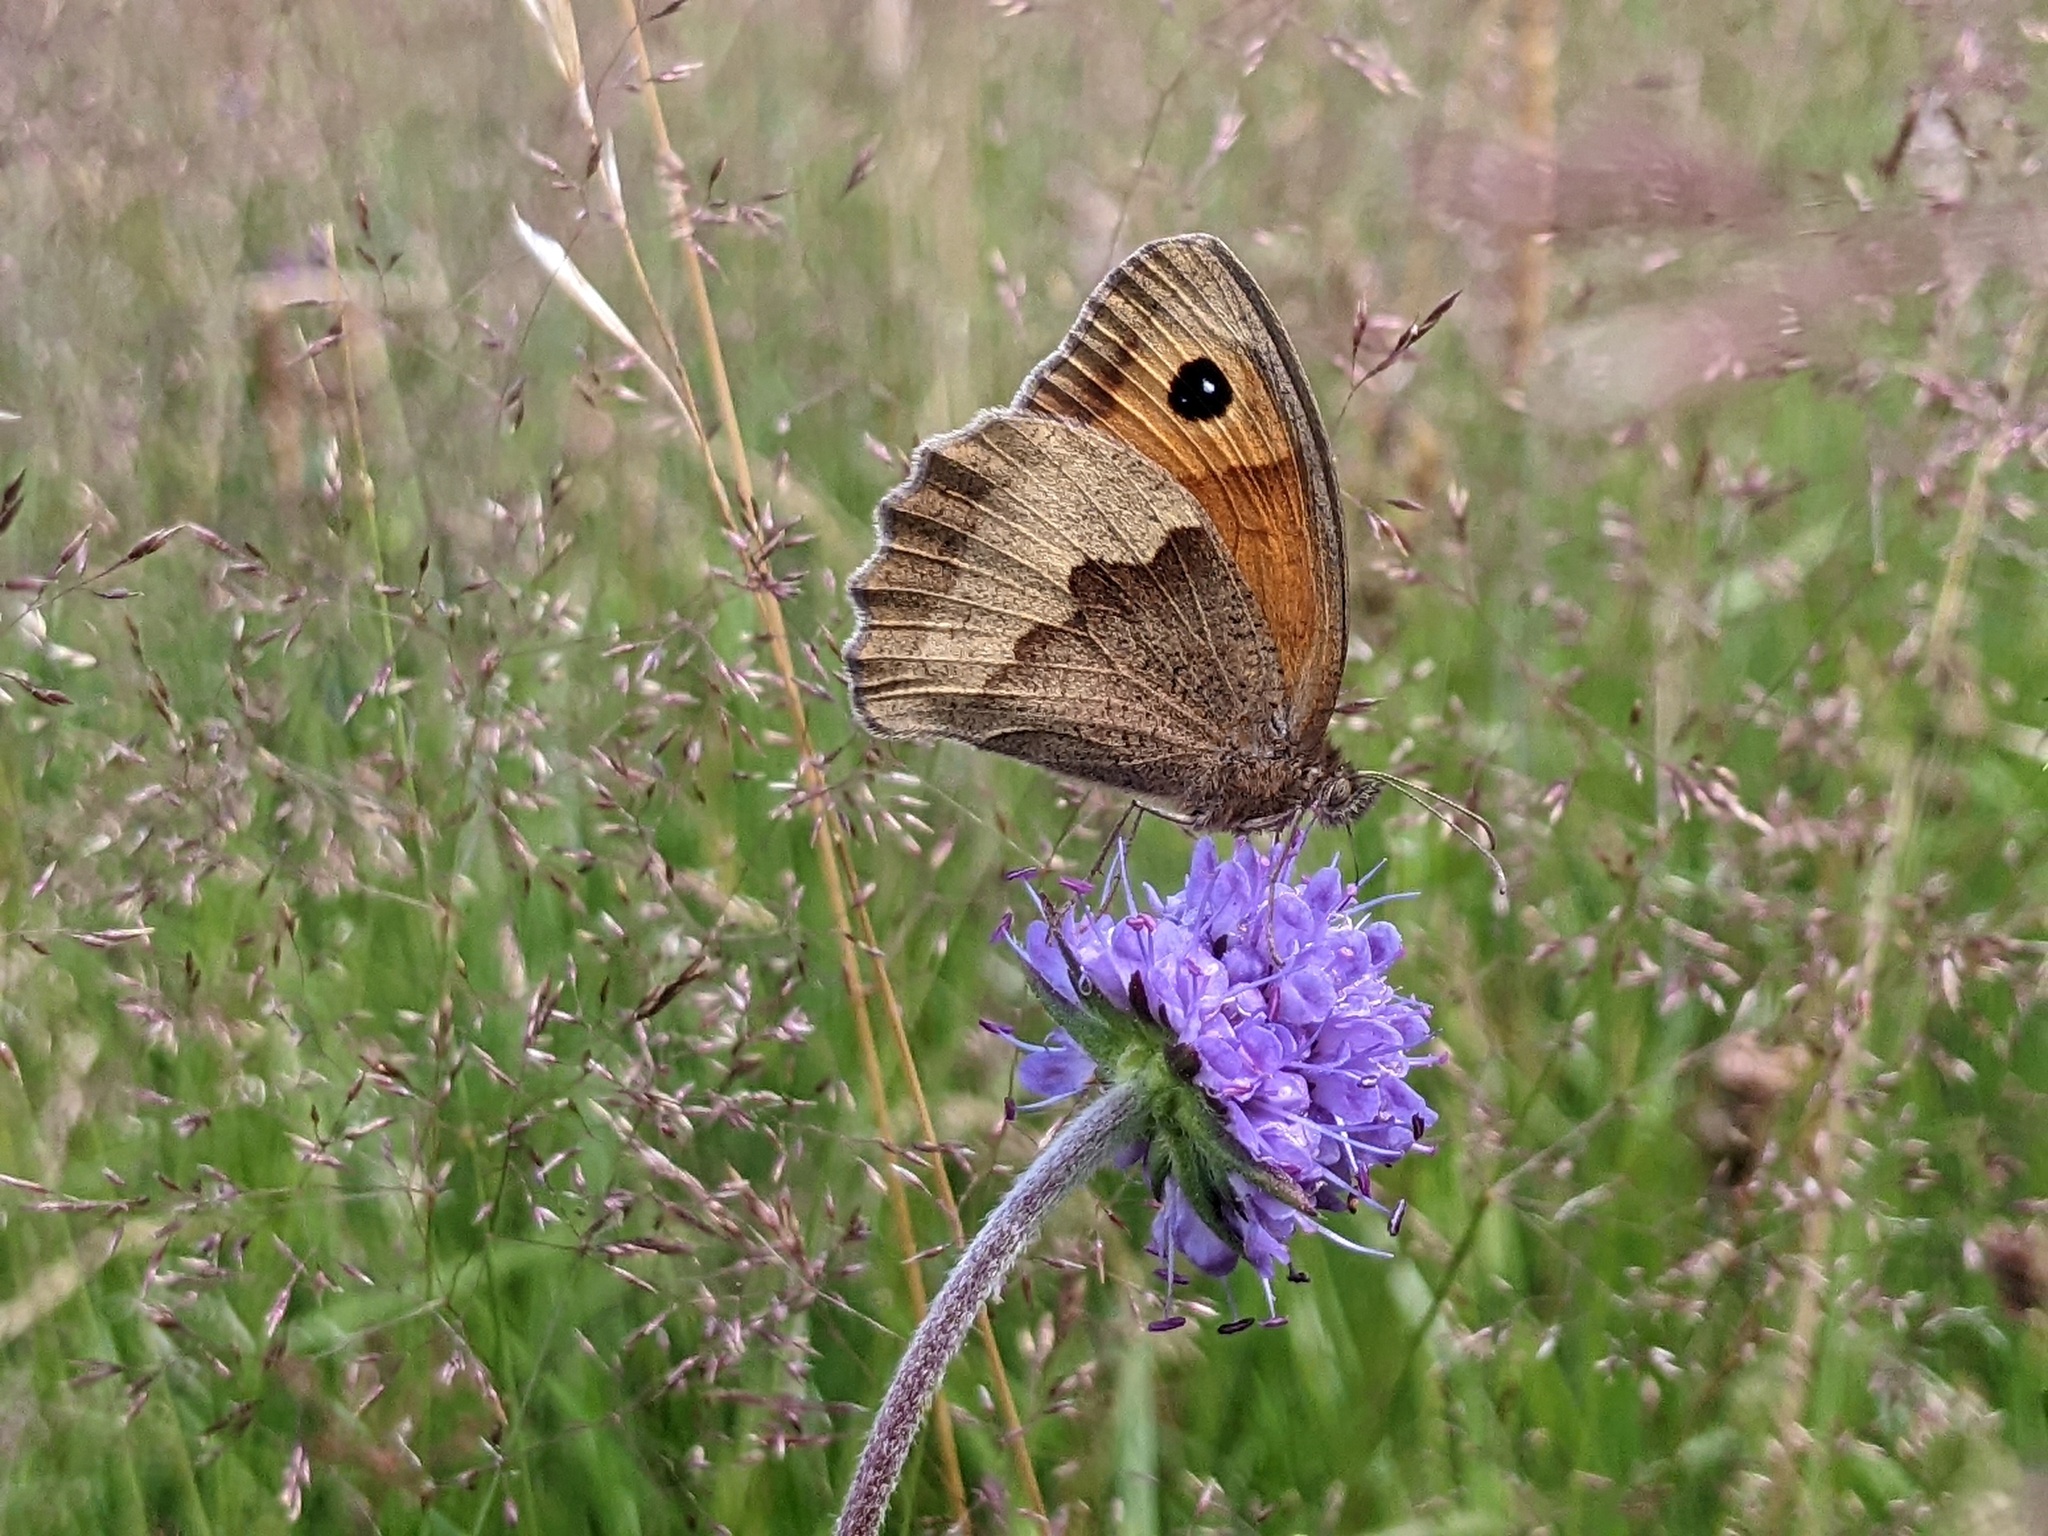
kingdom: Animalia
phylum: Arthropoda
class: Insecta
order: Lepidoptera
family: Nymphalidae
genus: Maniola
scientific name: Maniola jurtina
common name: Meadow brown
